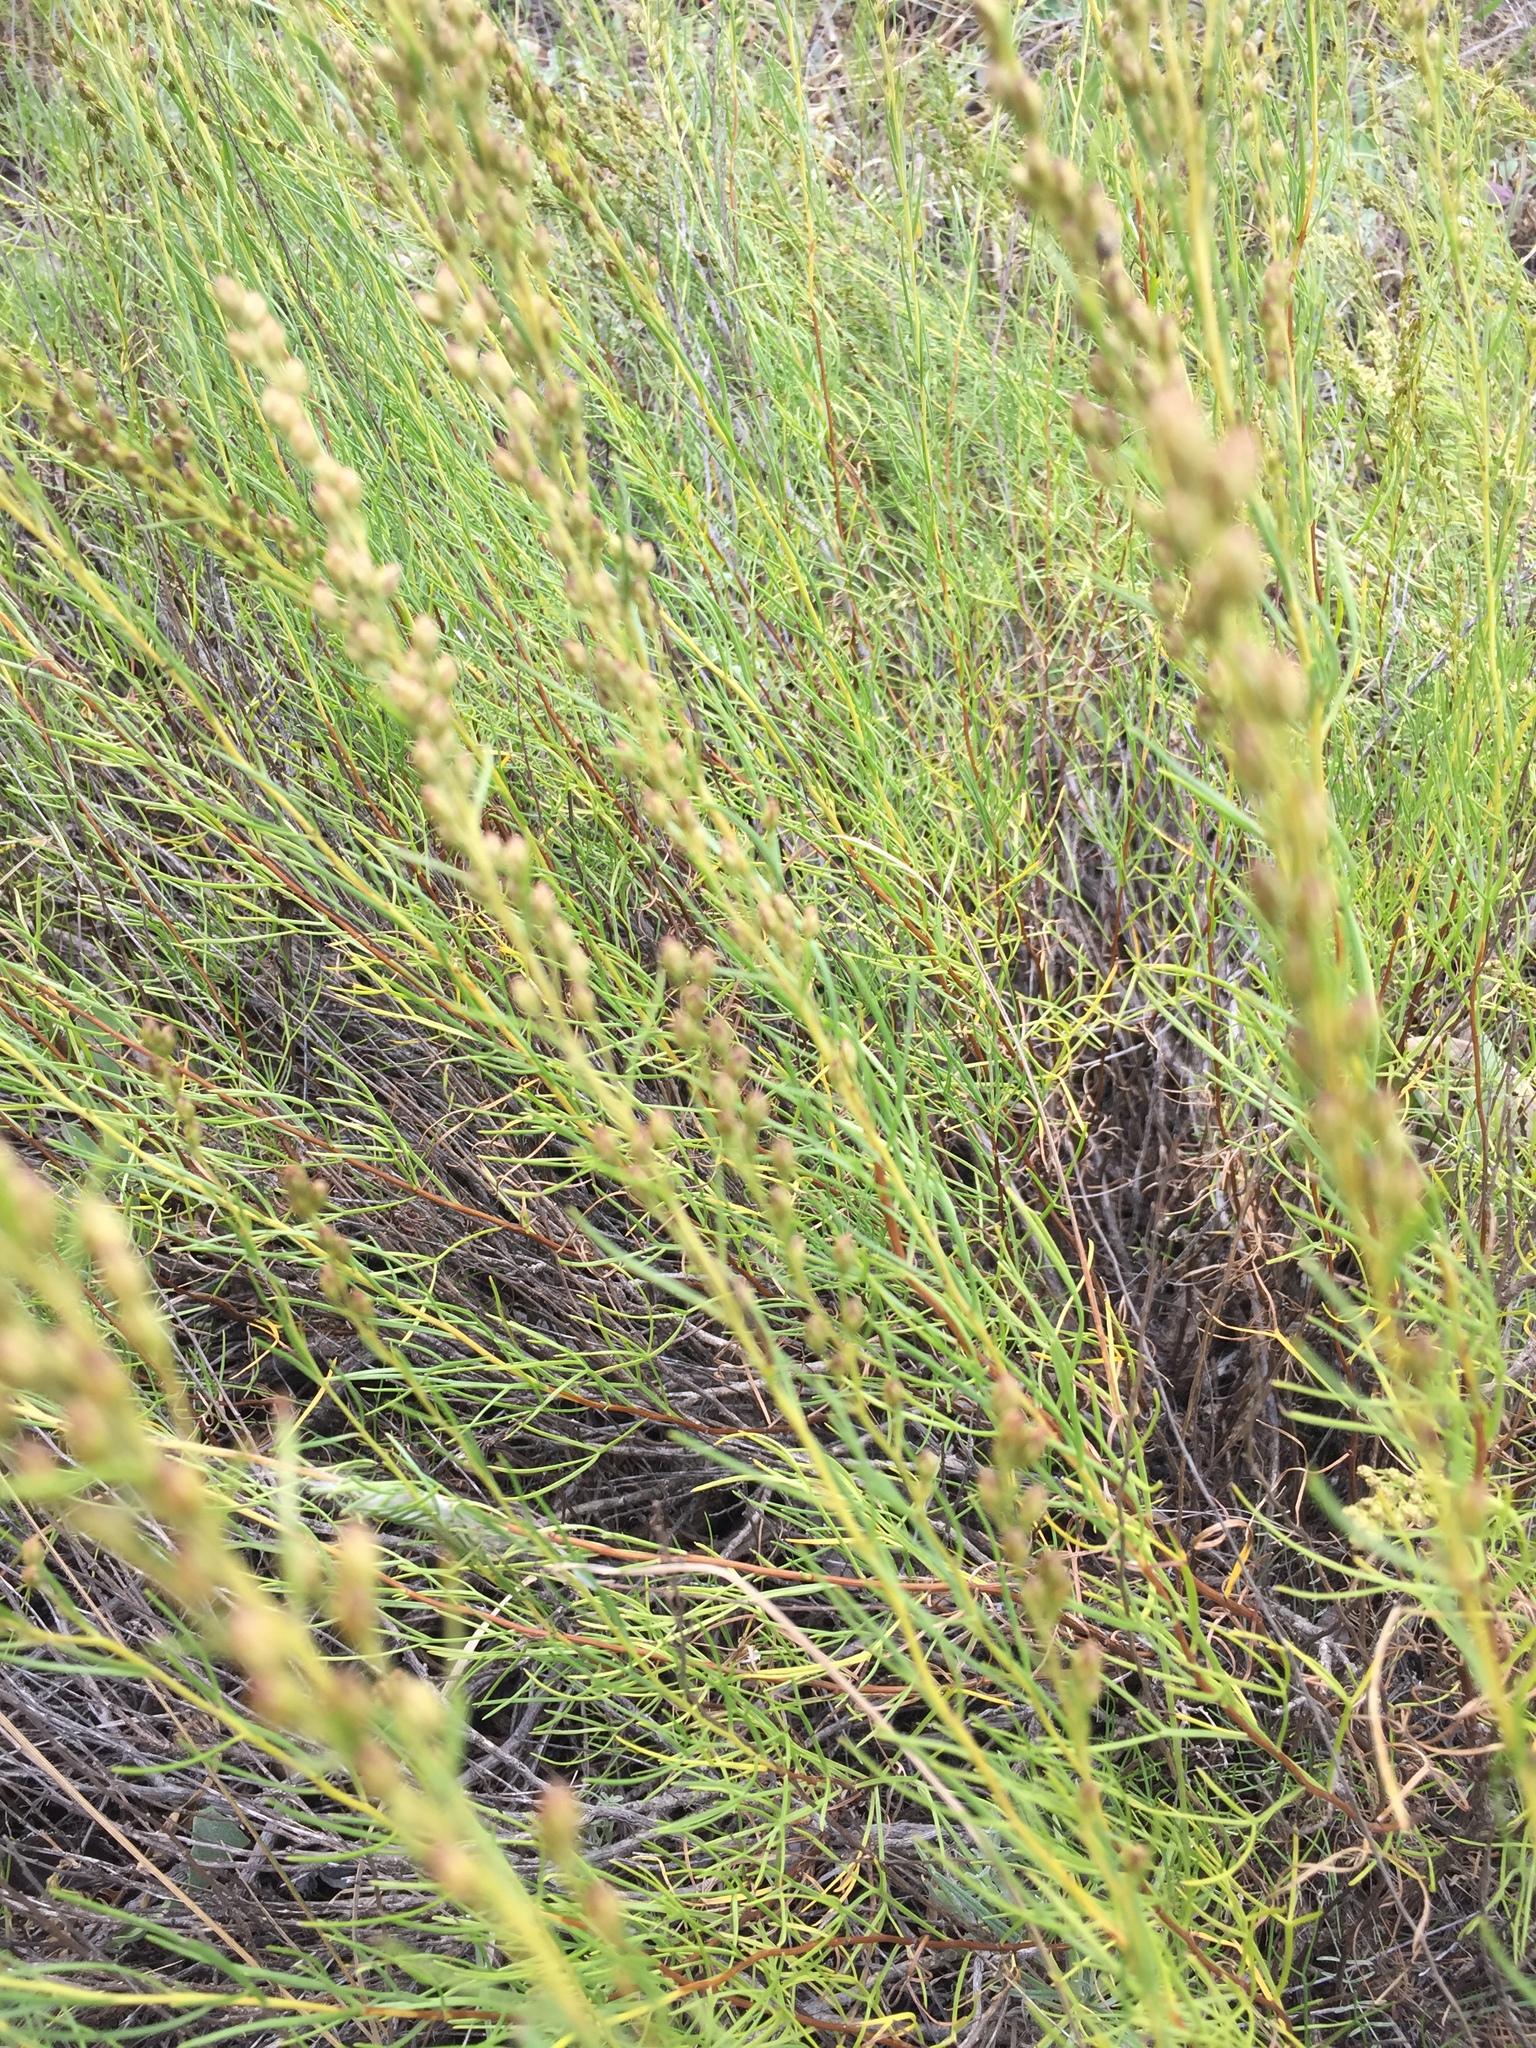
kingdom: Plantae
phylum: Tracheophyta
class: Magnoliopsida
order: Asterales
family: Asteraceae
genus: Artemisia
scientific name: Artemisia dracunculus
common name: Tarragon
